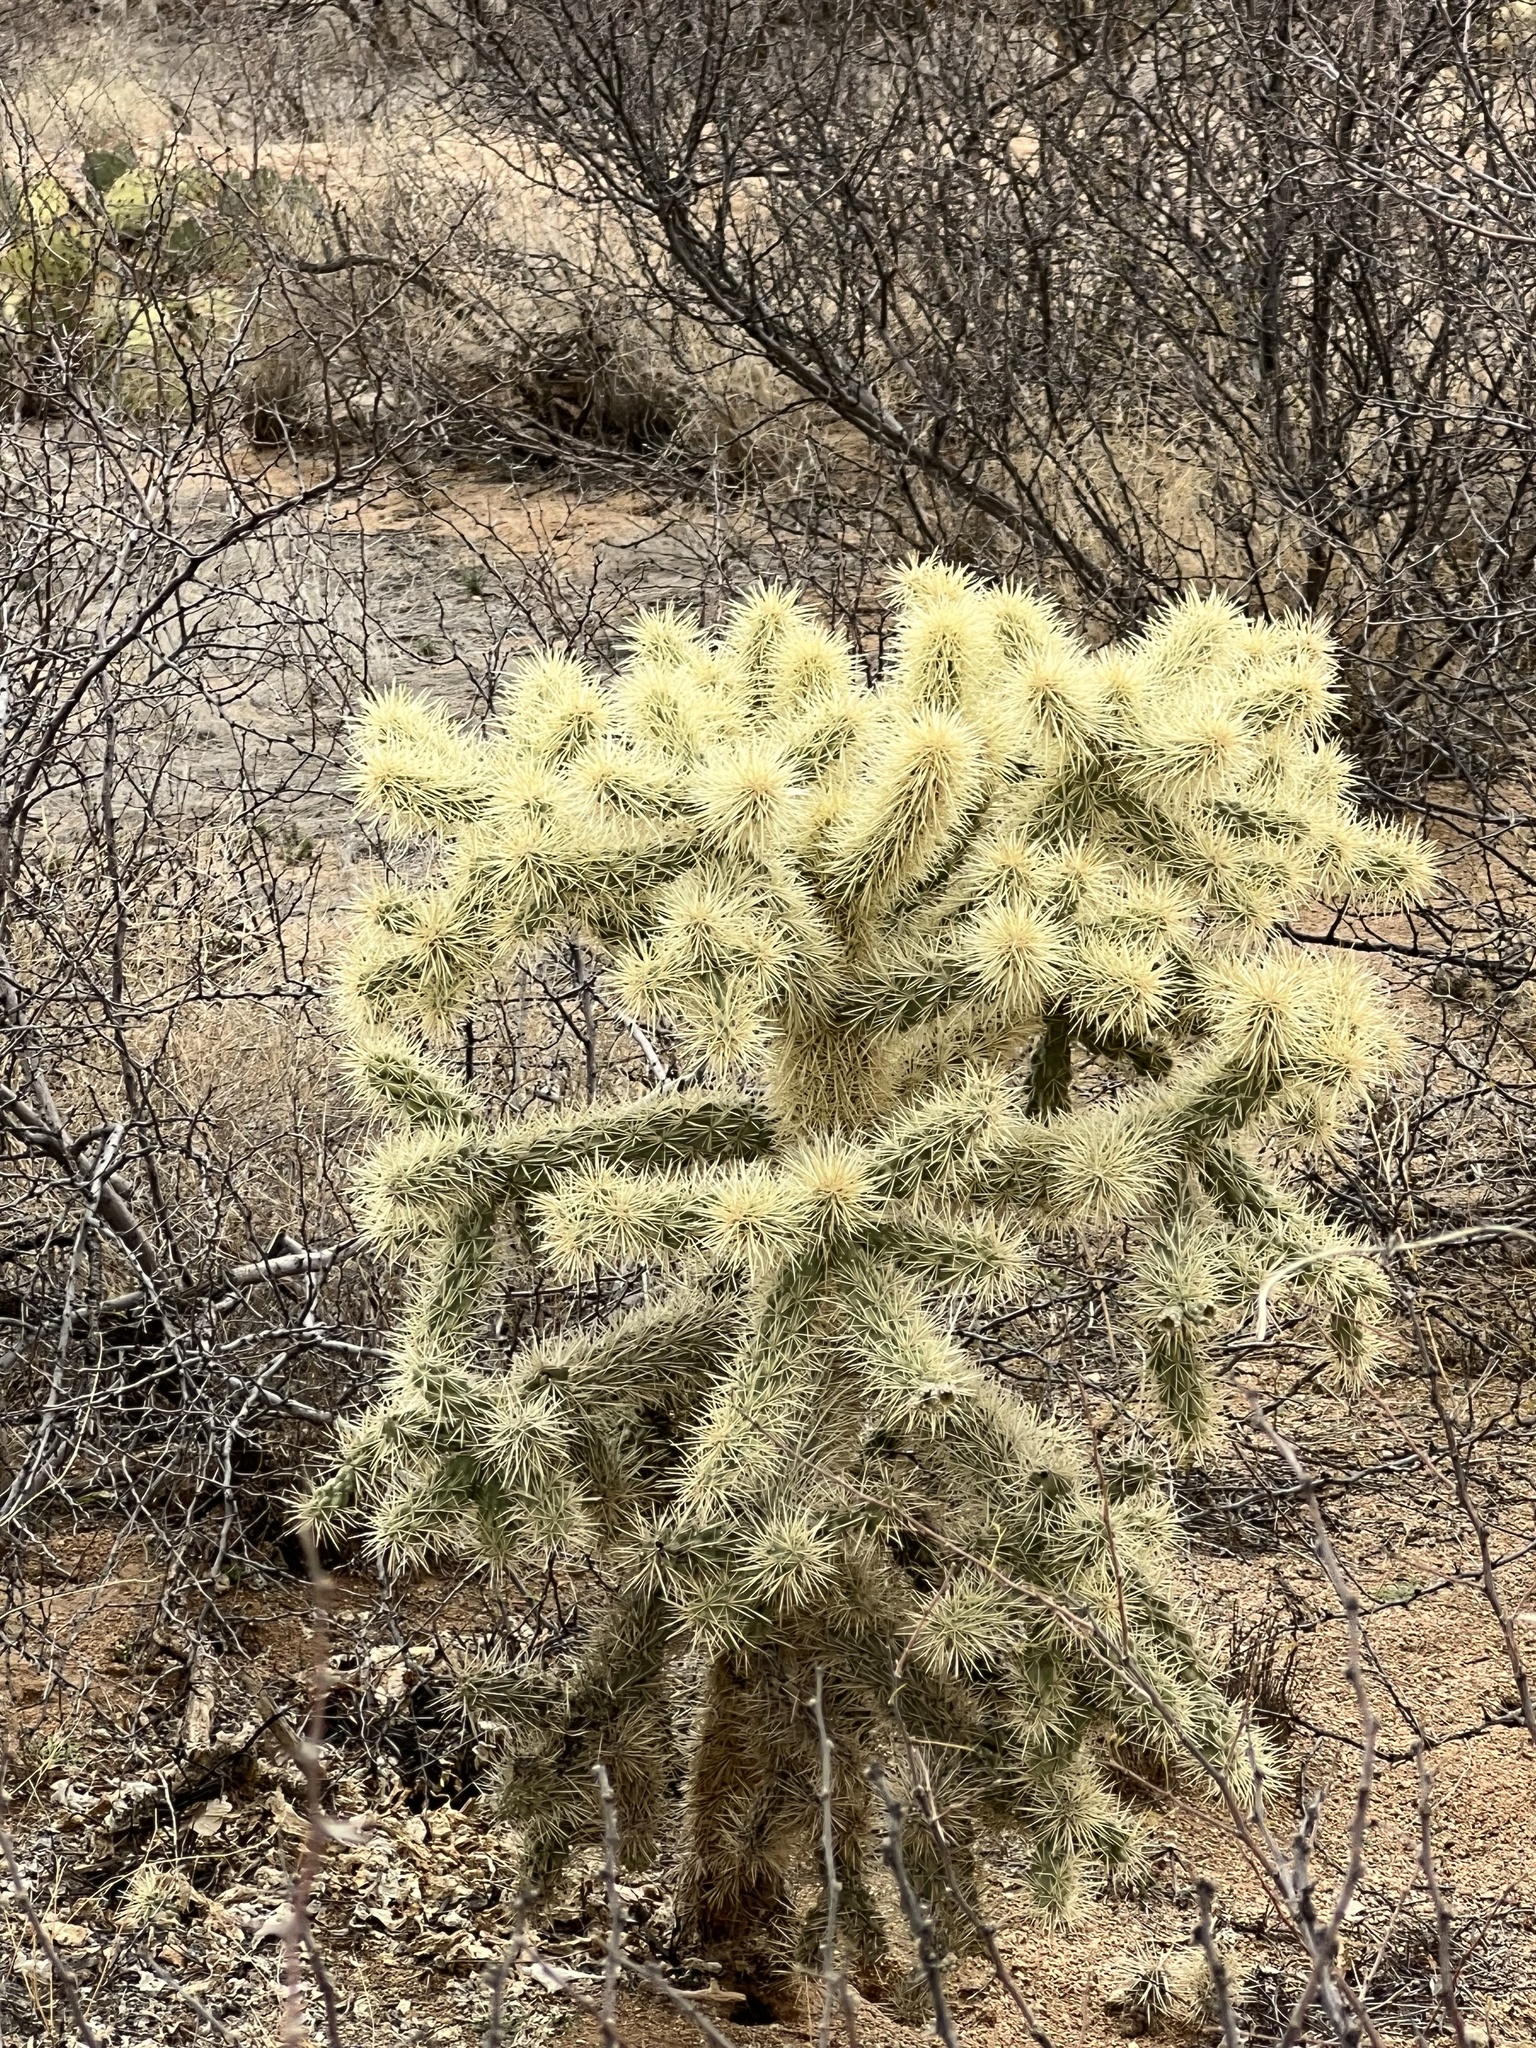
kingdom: Plantae
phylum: Tracheophyta
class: Magnoliopsida
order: Caryophyllales
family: Cactaceae
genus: Cylindropuntia
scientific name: Cylindropuntia fulgida
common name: Jumping cholla
